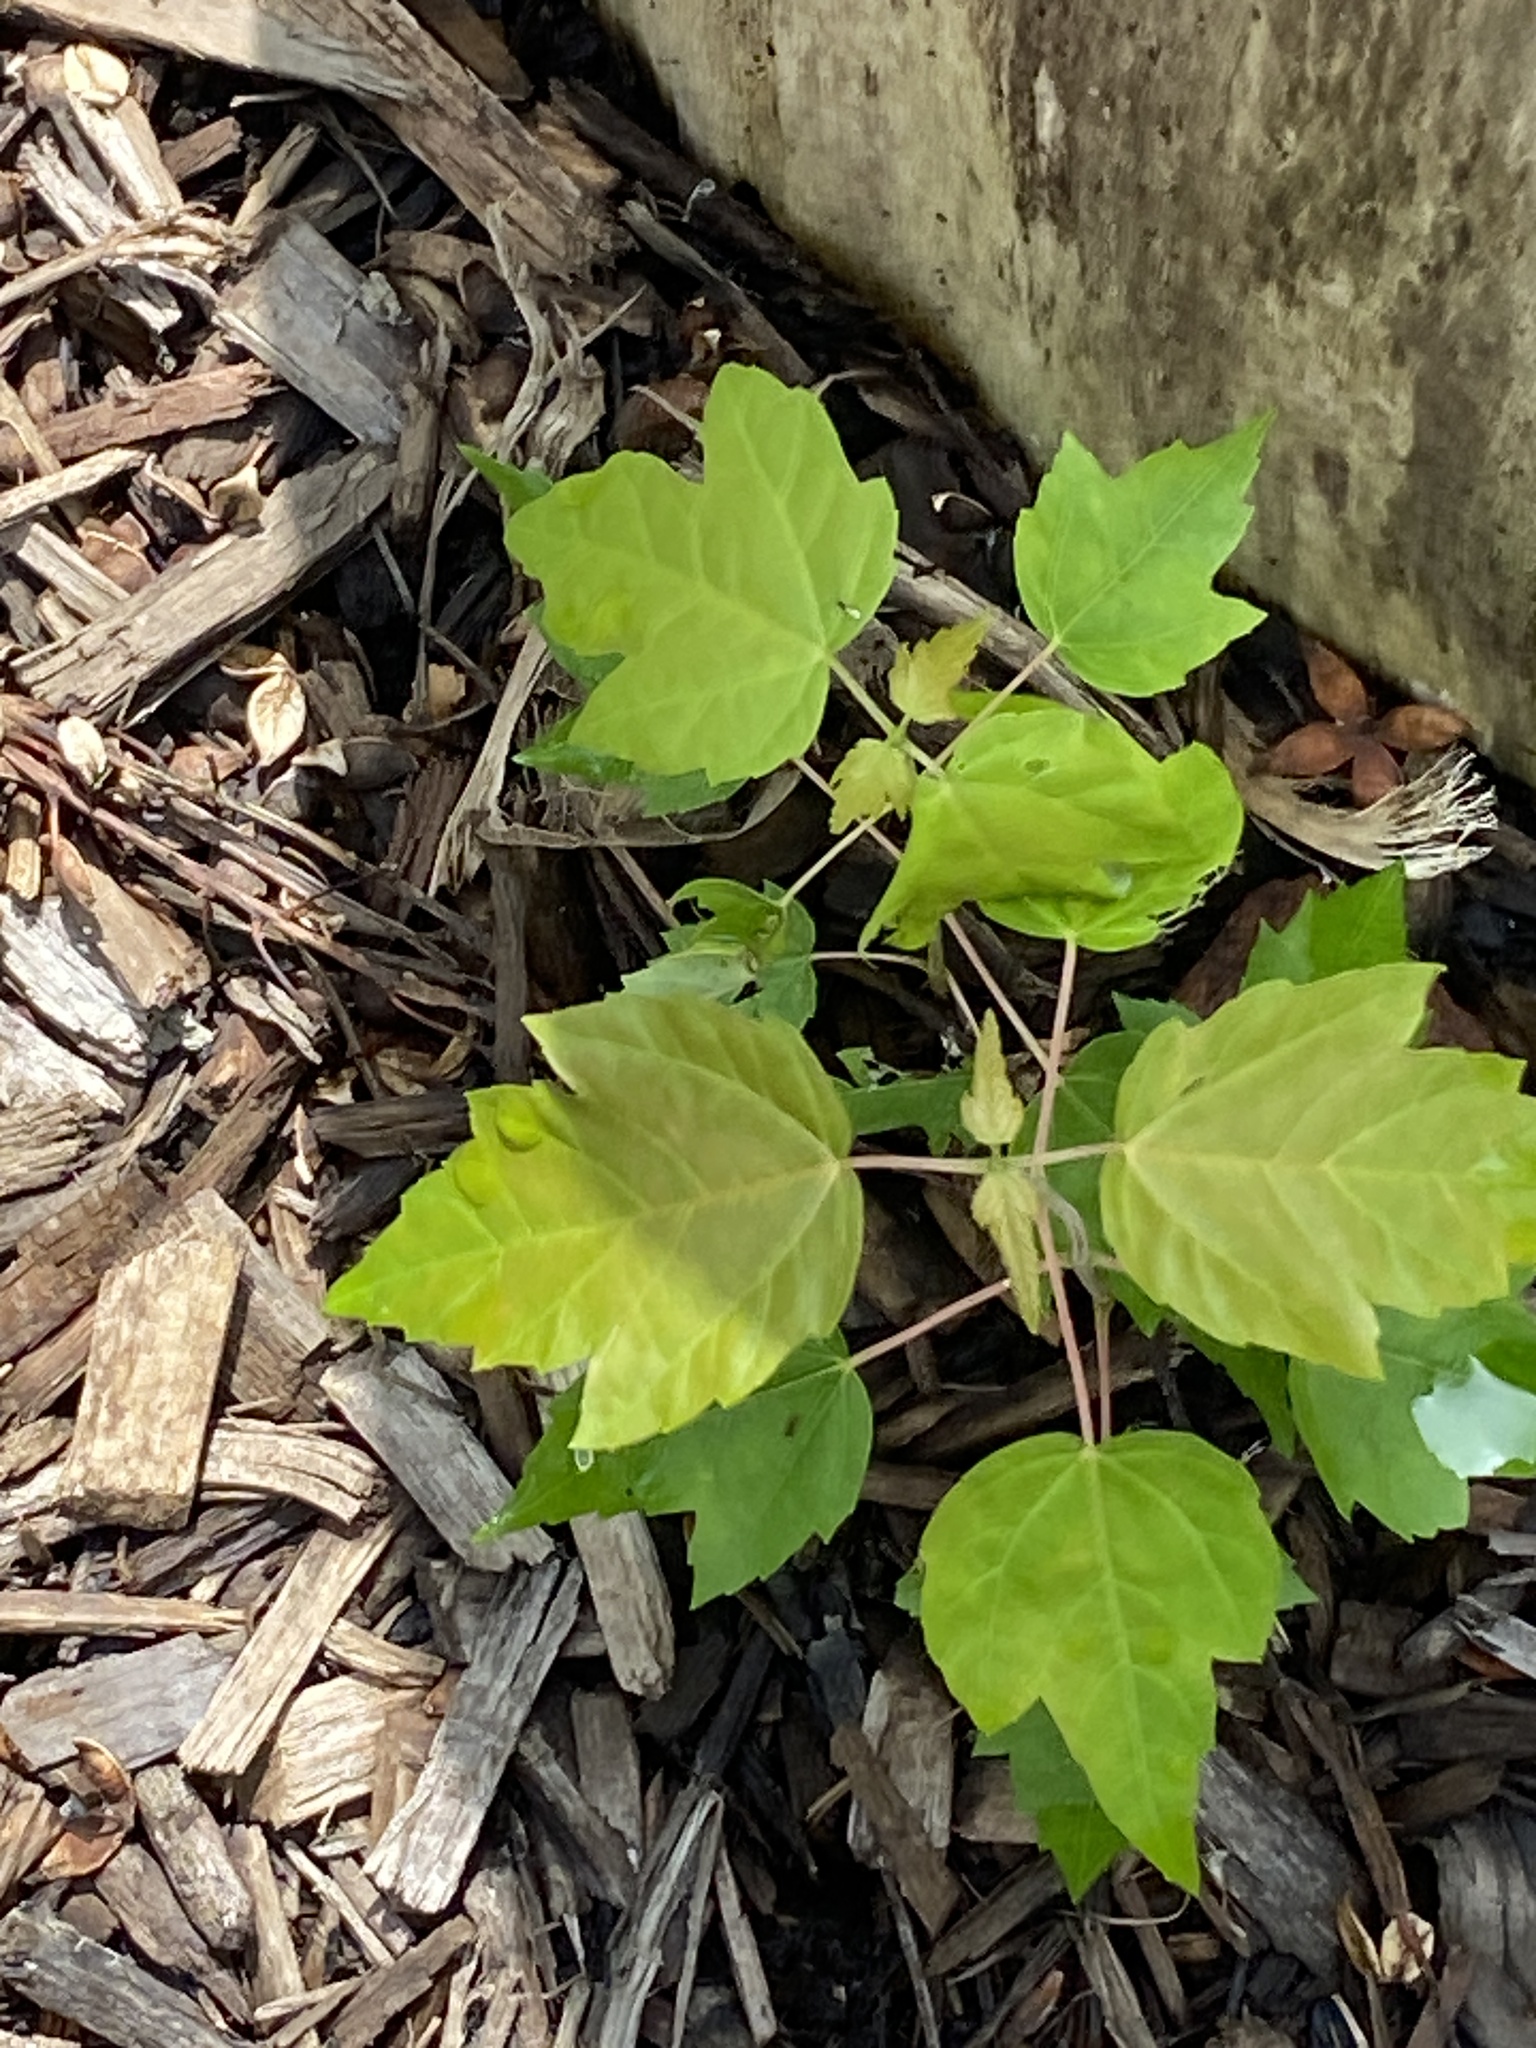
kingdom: Plantae
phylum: Tracheophyta
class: Magnoliopsida
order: Sapindales
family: Sapindaceae
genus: Acer
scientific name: Acer rubrum
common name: Red maple
